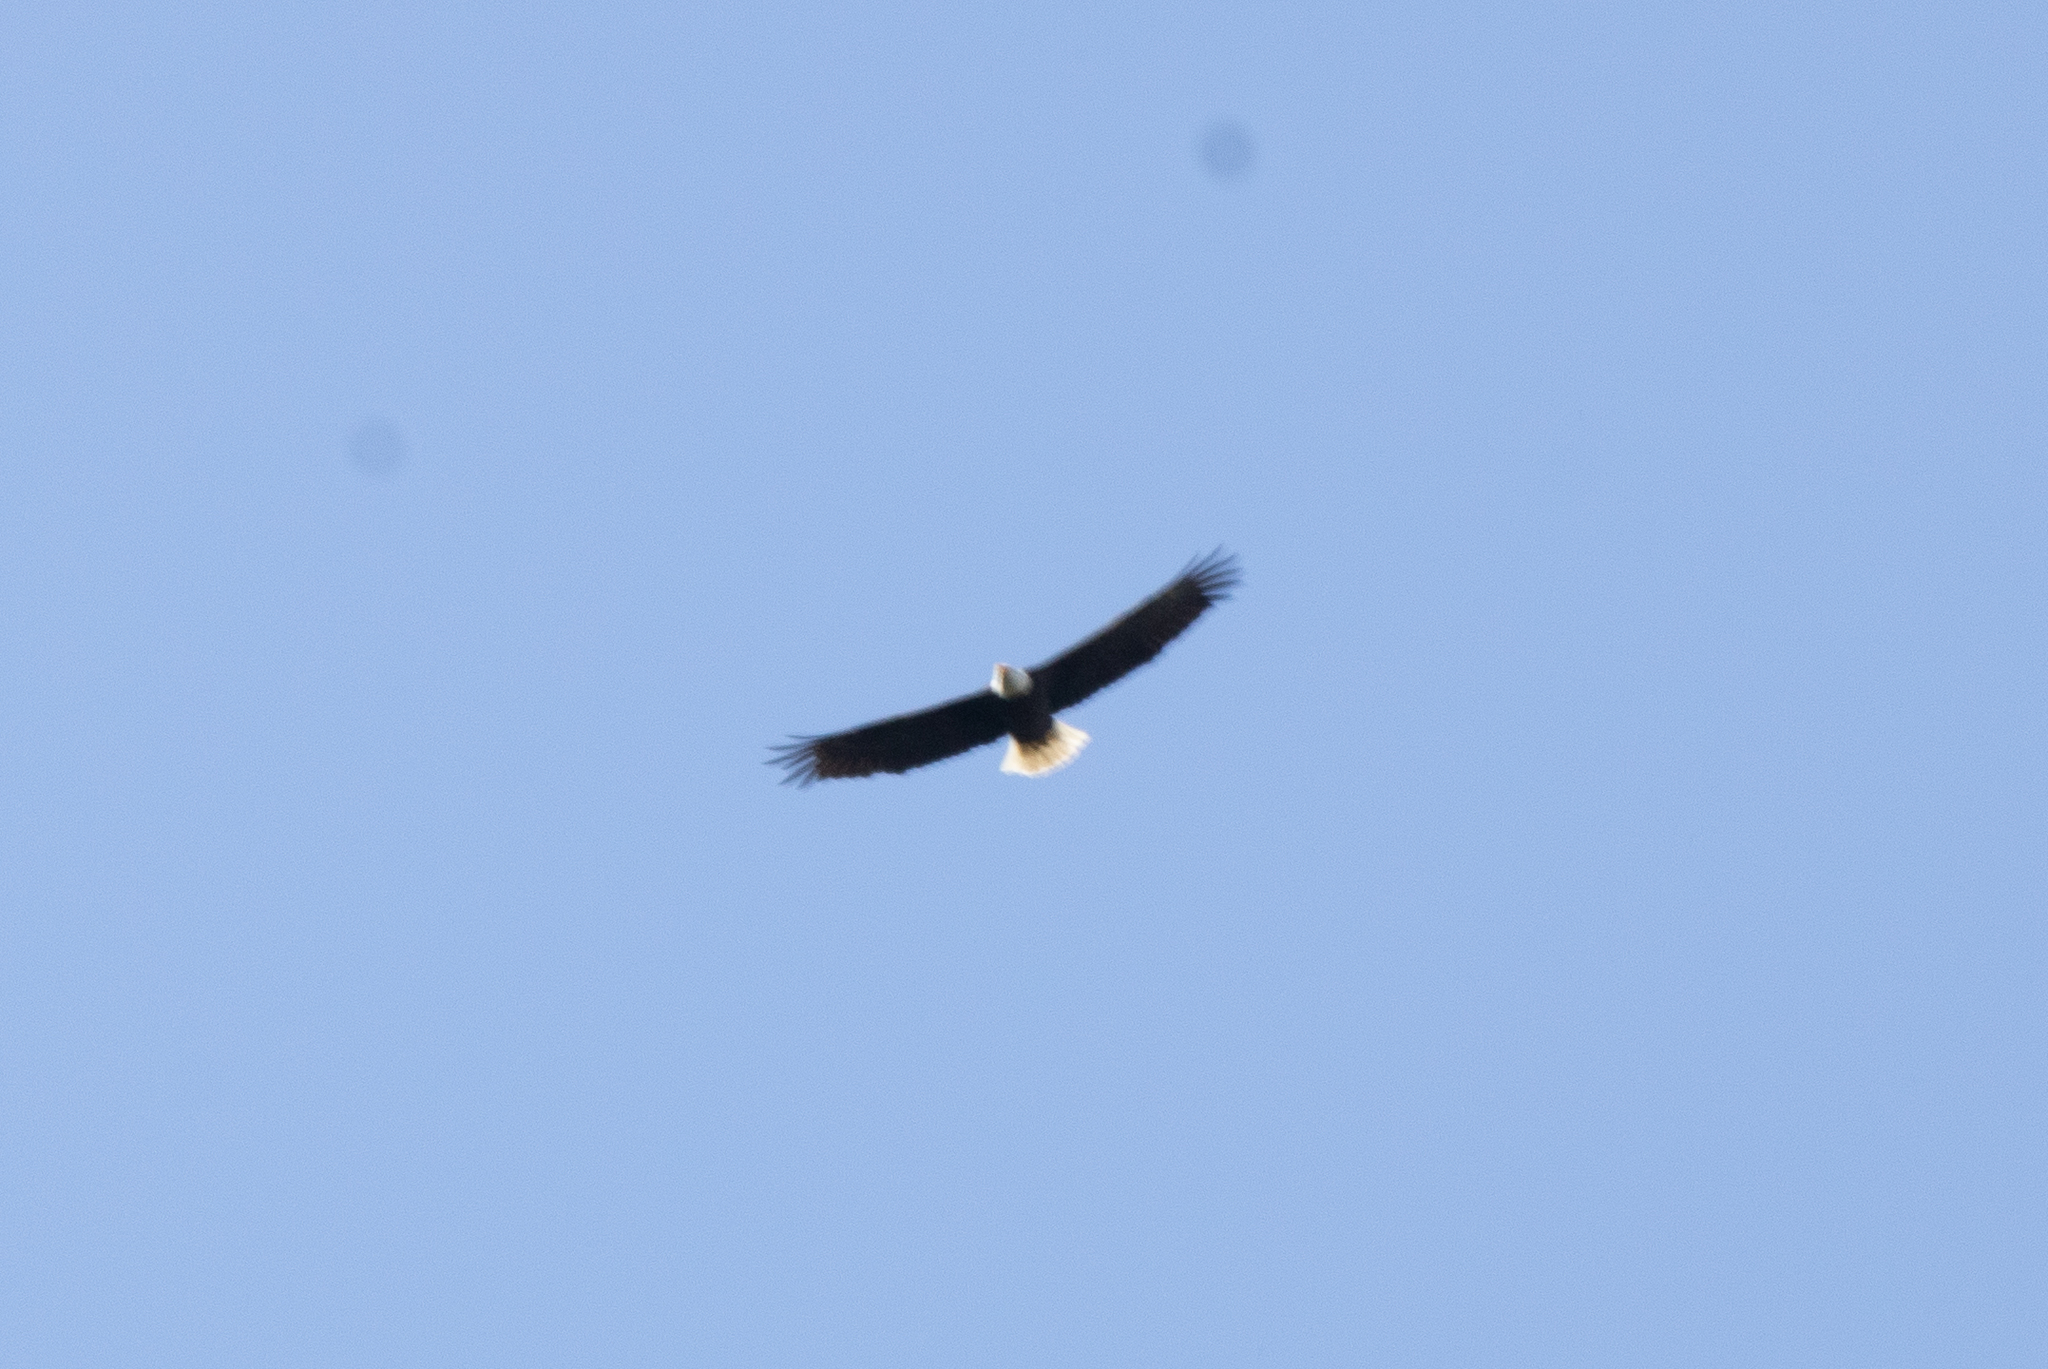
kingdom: Animalia
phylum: Chordata
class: Aves
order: Accipitriformes
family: Accipitridae
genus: Haliaeetus
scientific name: Haliaeetus leucocephalus
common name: Bald eagle
